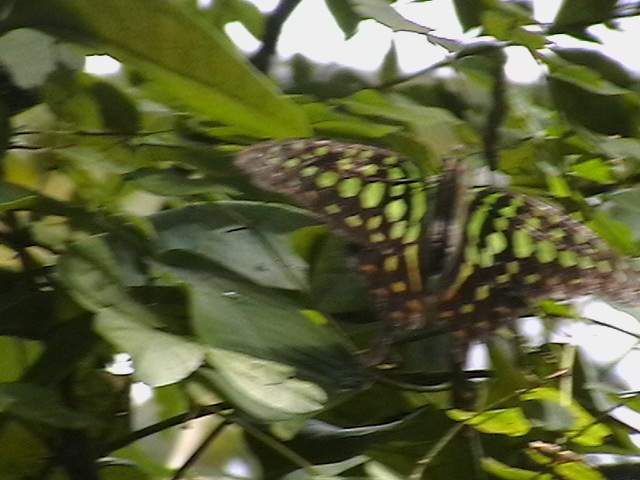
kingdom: Animalia
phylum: Arthropoda
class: Insecta
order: Lepidoptera
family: Papilionidae
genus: Graphium
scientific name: Graphium agamemnon
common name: Tailed jay
